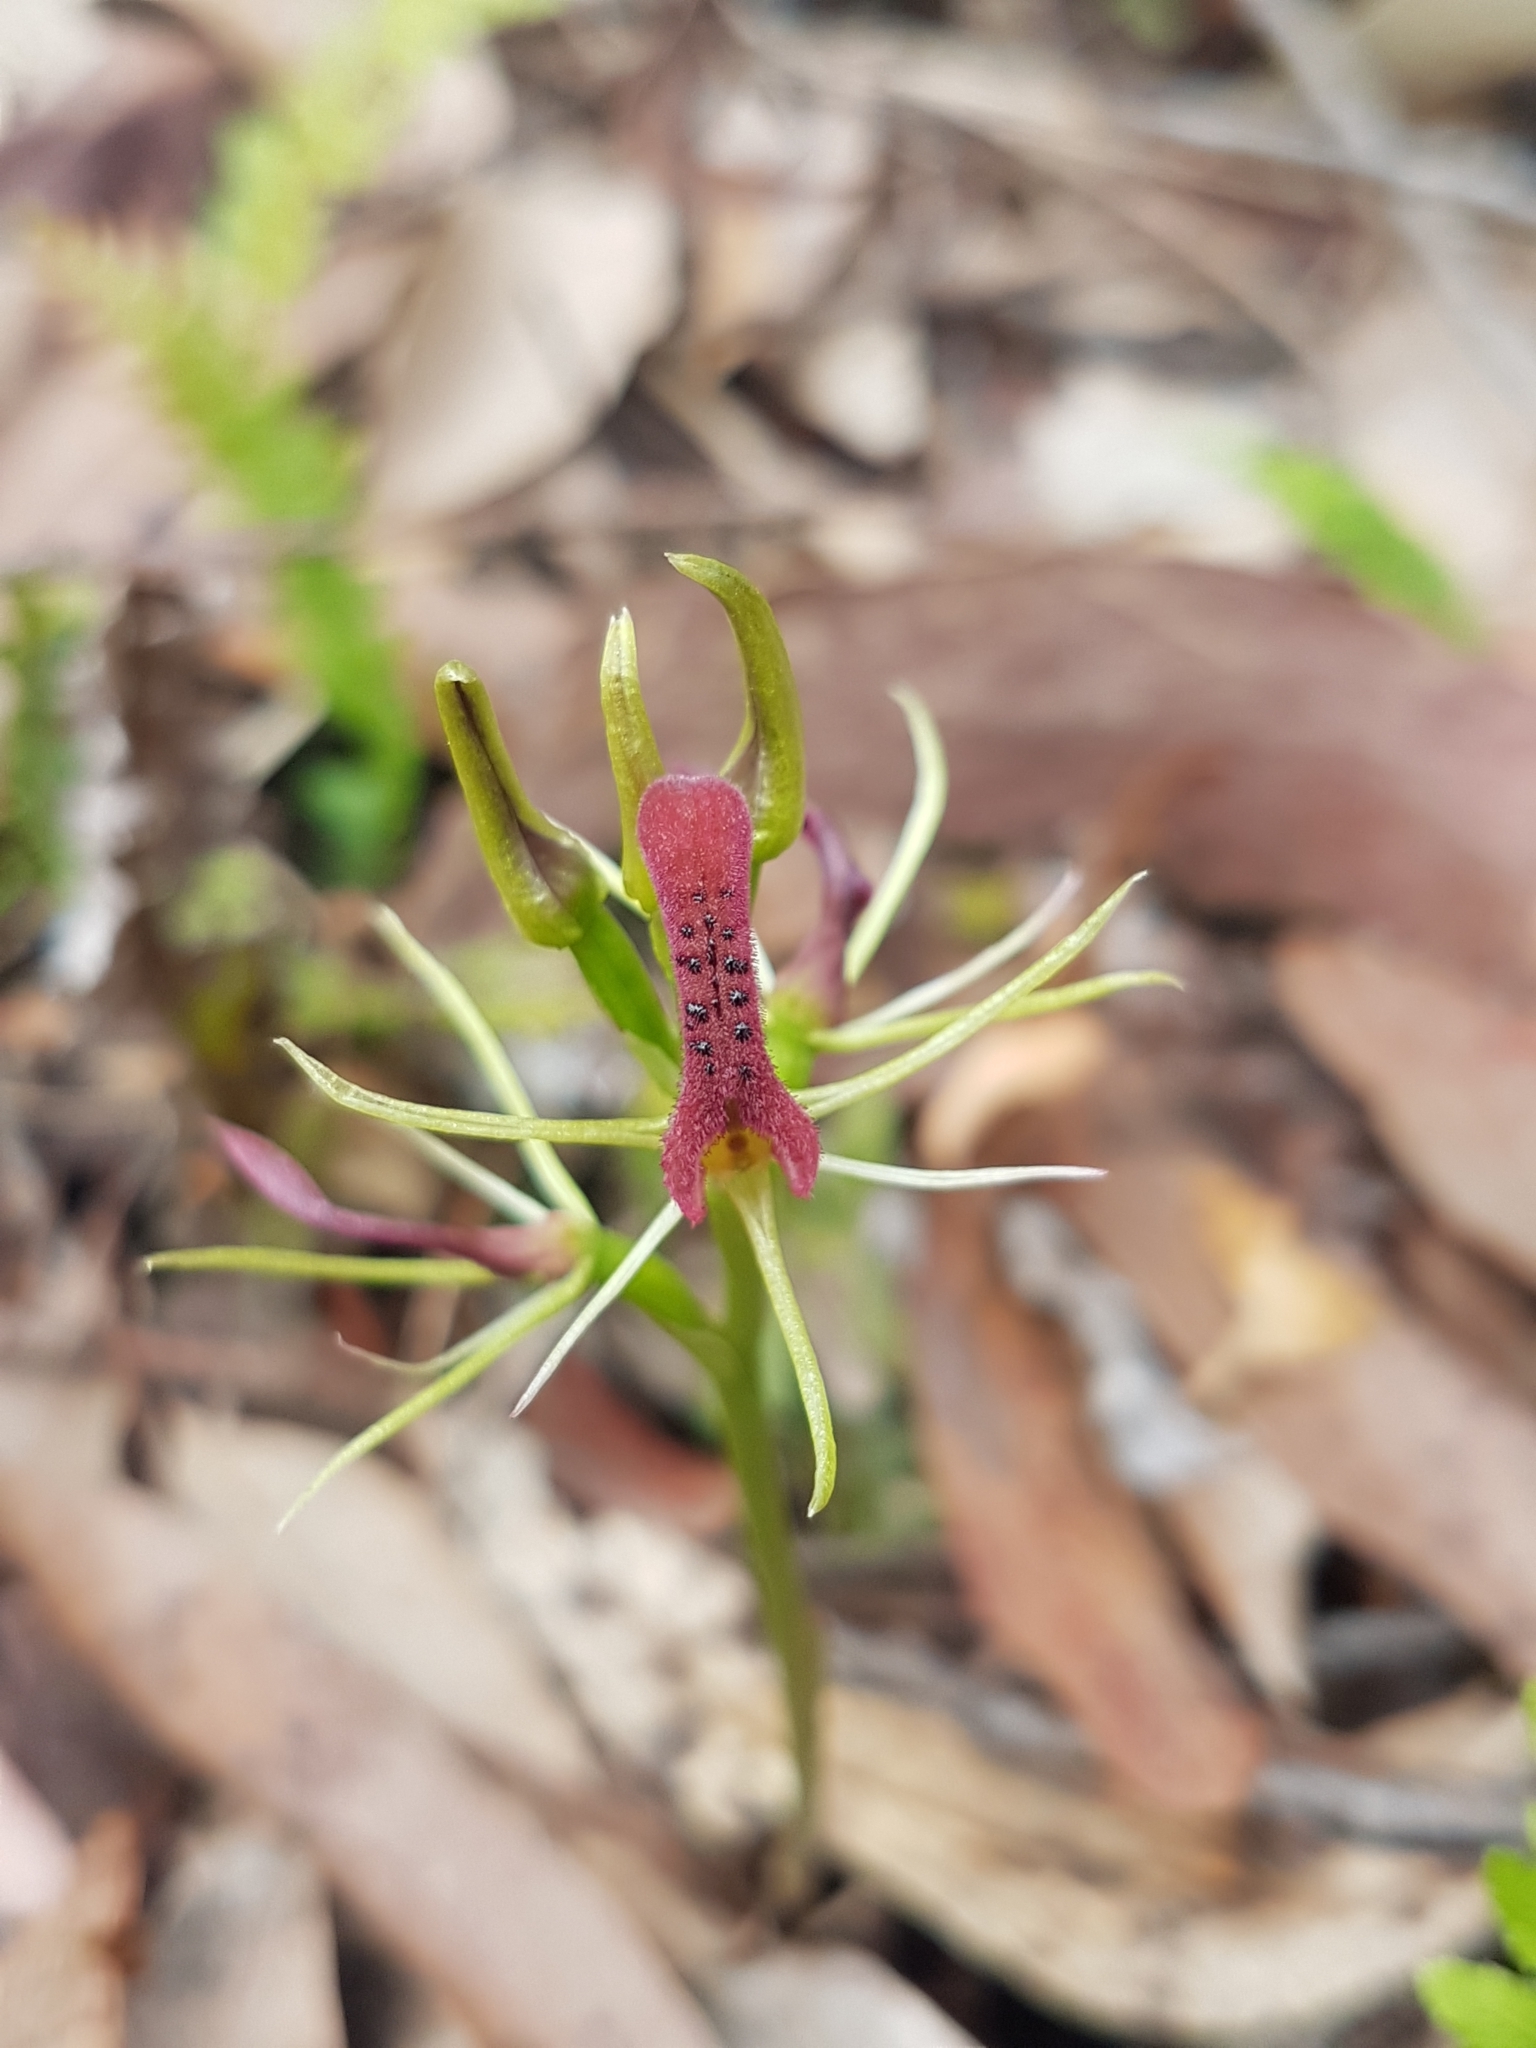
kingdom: Plantae
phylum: Tracheophyta
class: Liliopsida
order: Asparagales
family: Orchidaceae
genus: Cryptostylis
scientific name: Cryptostylis leptochila
